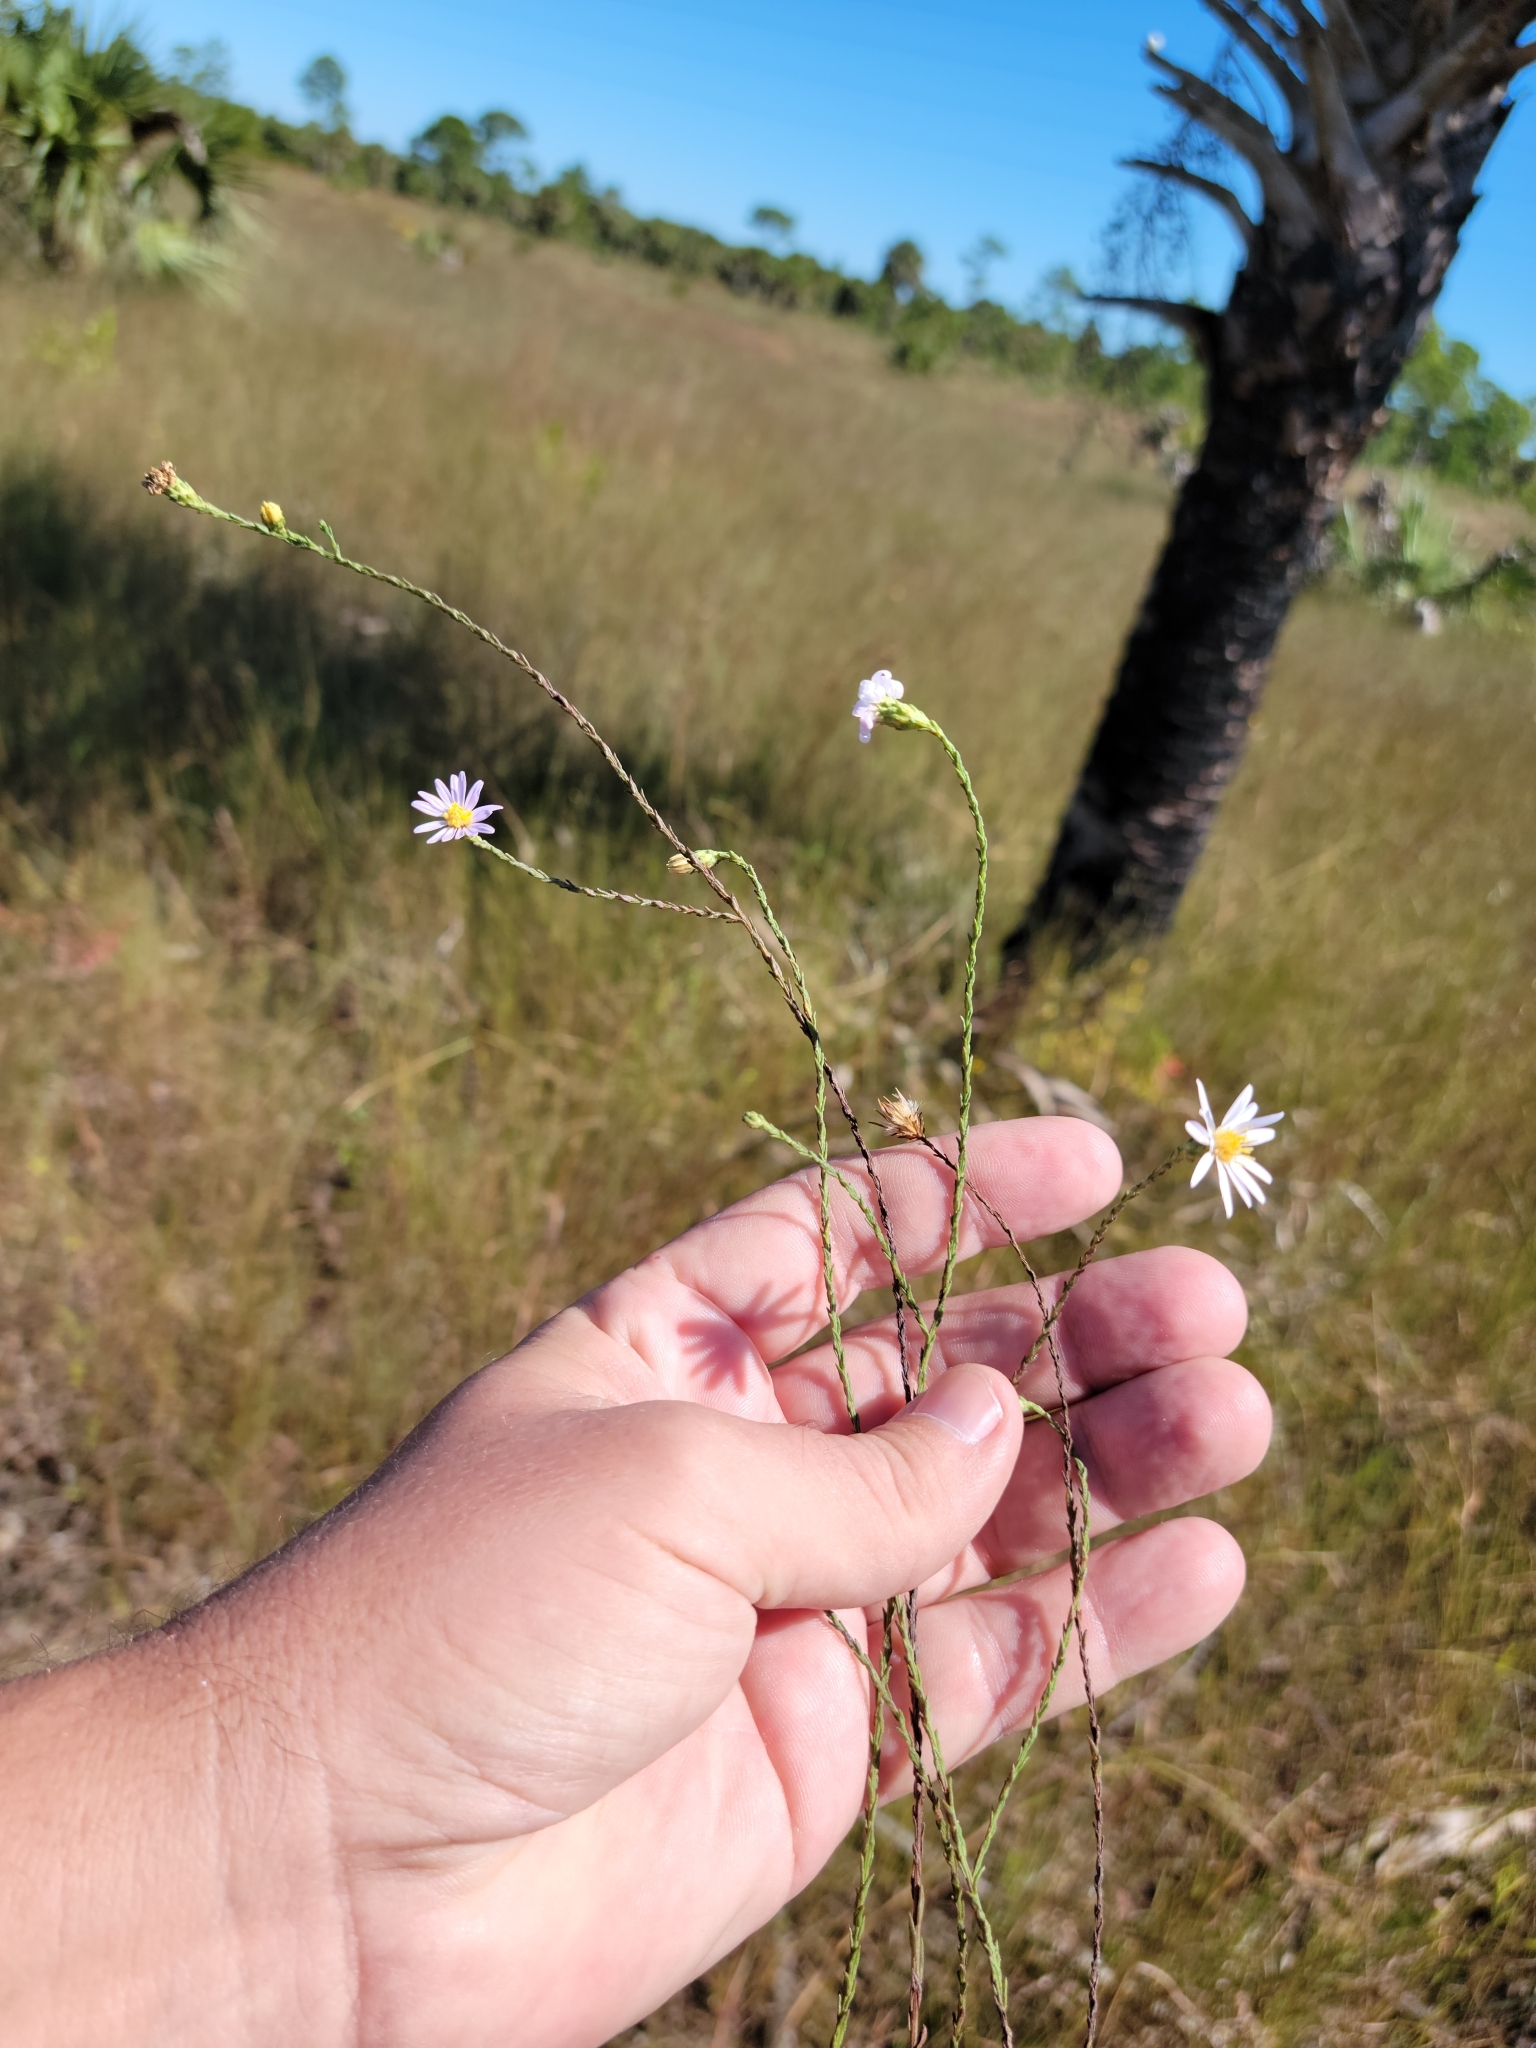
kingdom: Plantae
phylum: Tracheophyta
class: Magnoliopsida
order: Asterales
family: Asteraceae
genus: Symphyotrichum
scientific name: Symphyotrichum adnatum
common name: Scale-leaf aster
